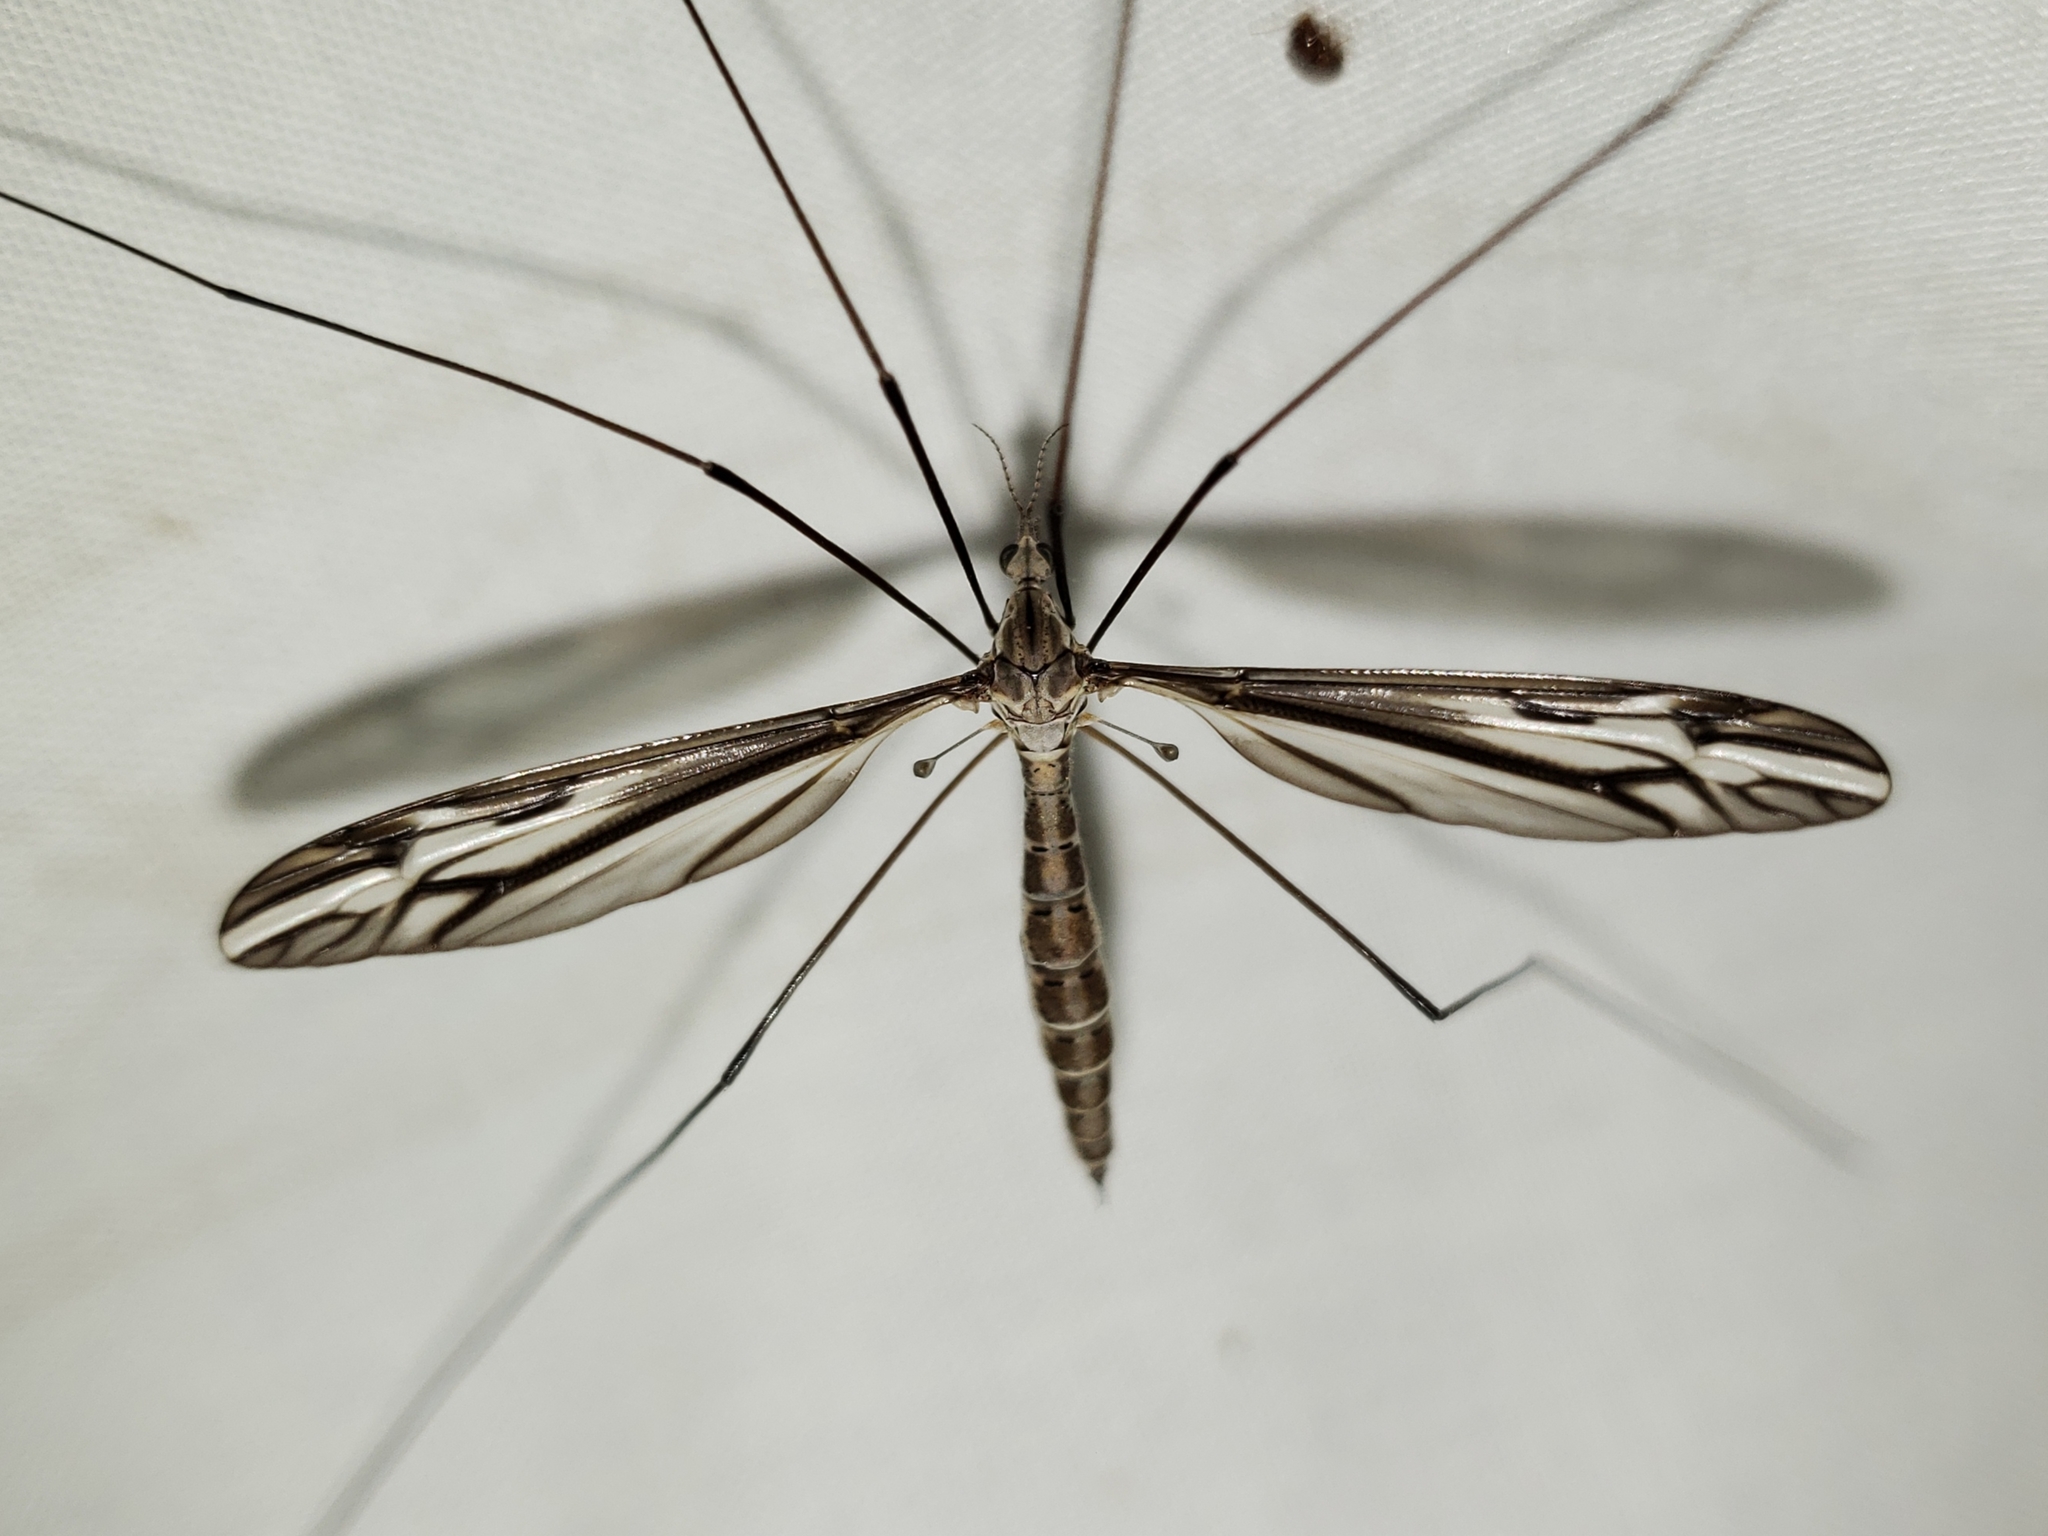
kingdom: Animalia
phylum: Arthropoda
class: Insecta
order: Diptera
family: Tipulidae
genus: Tipula
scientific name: Tipula furca
